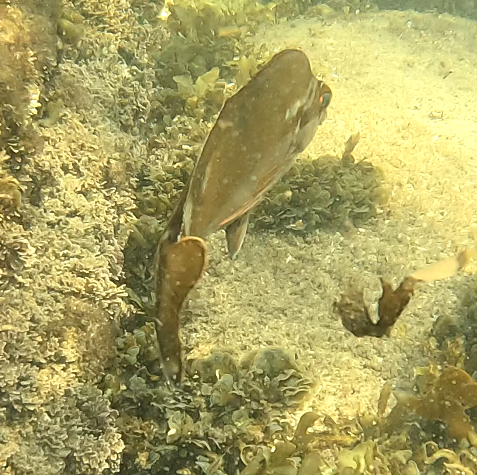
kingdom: Animalia
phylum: Chordata
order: Perciformes
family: Latridae
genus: Morwong
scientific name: Morwong fuscus
